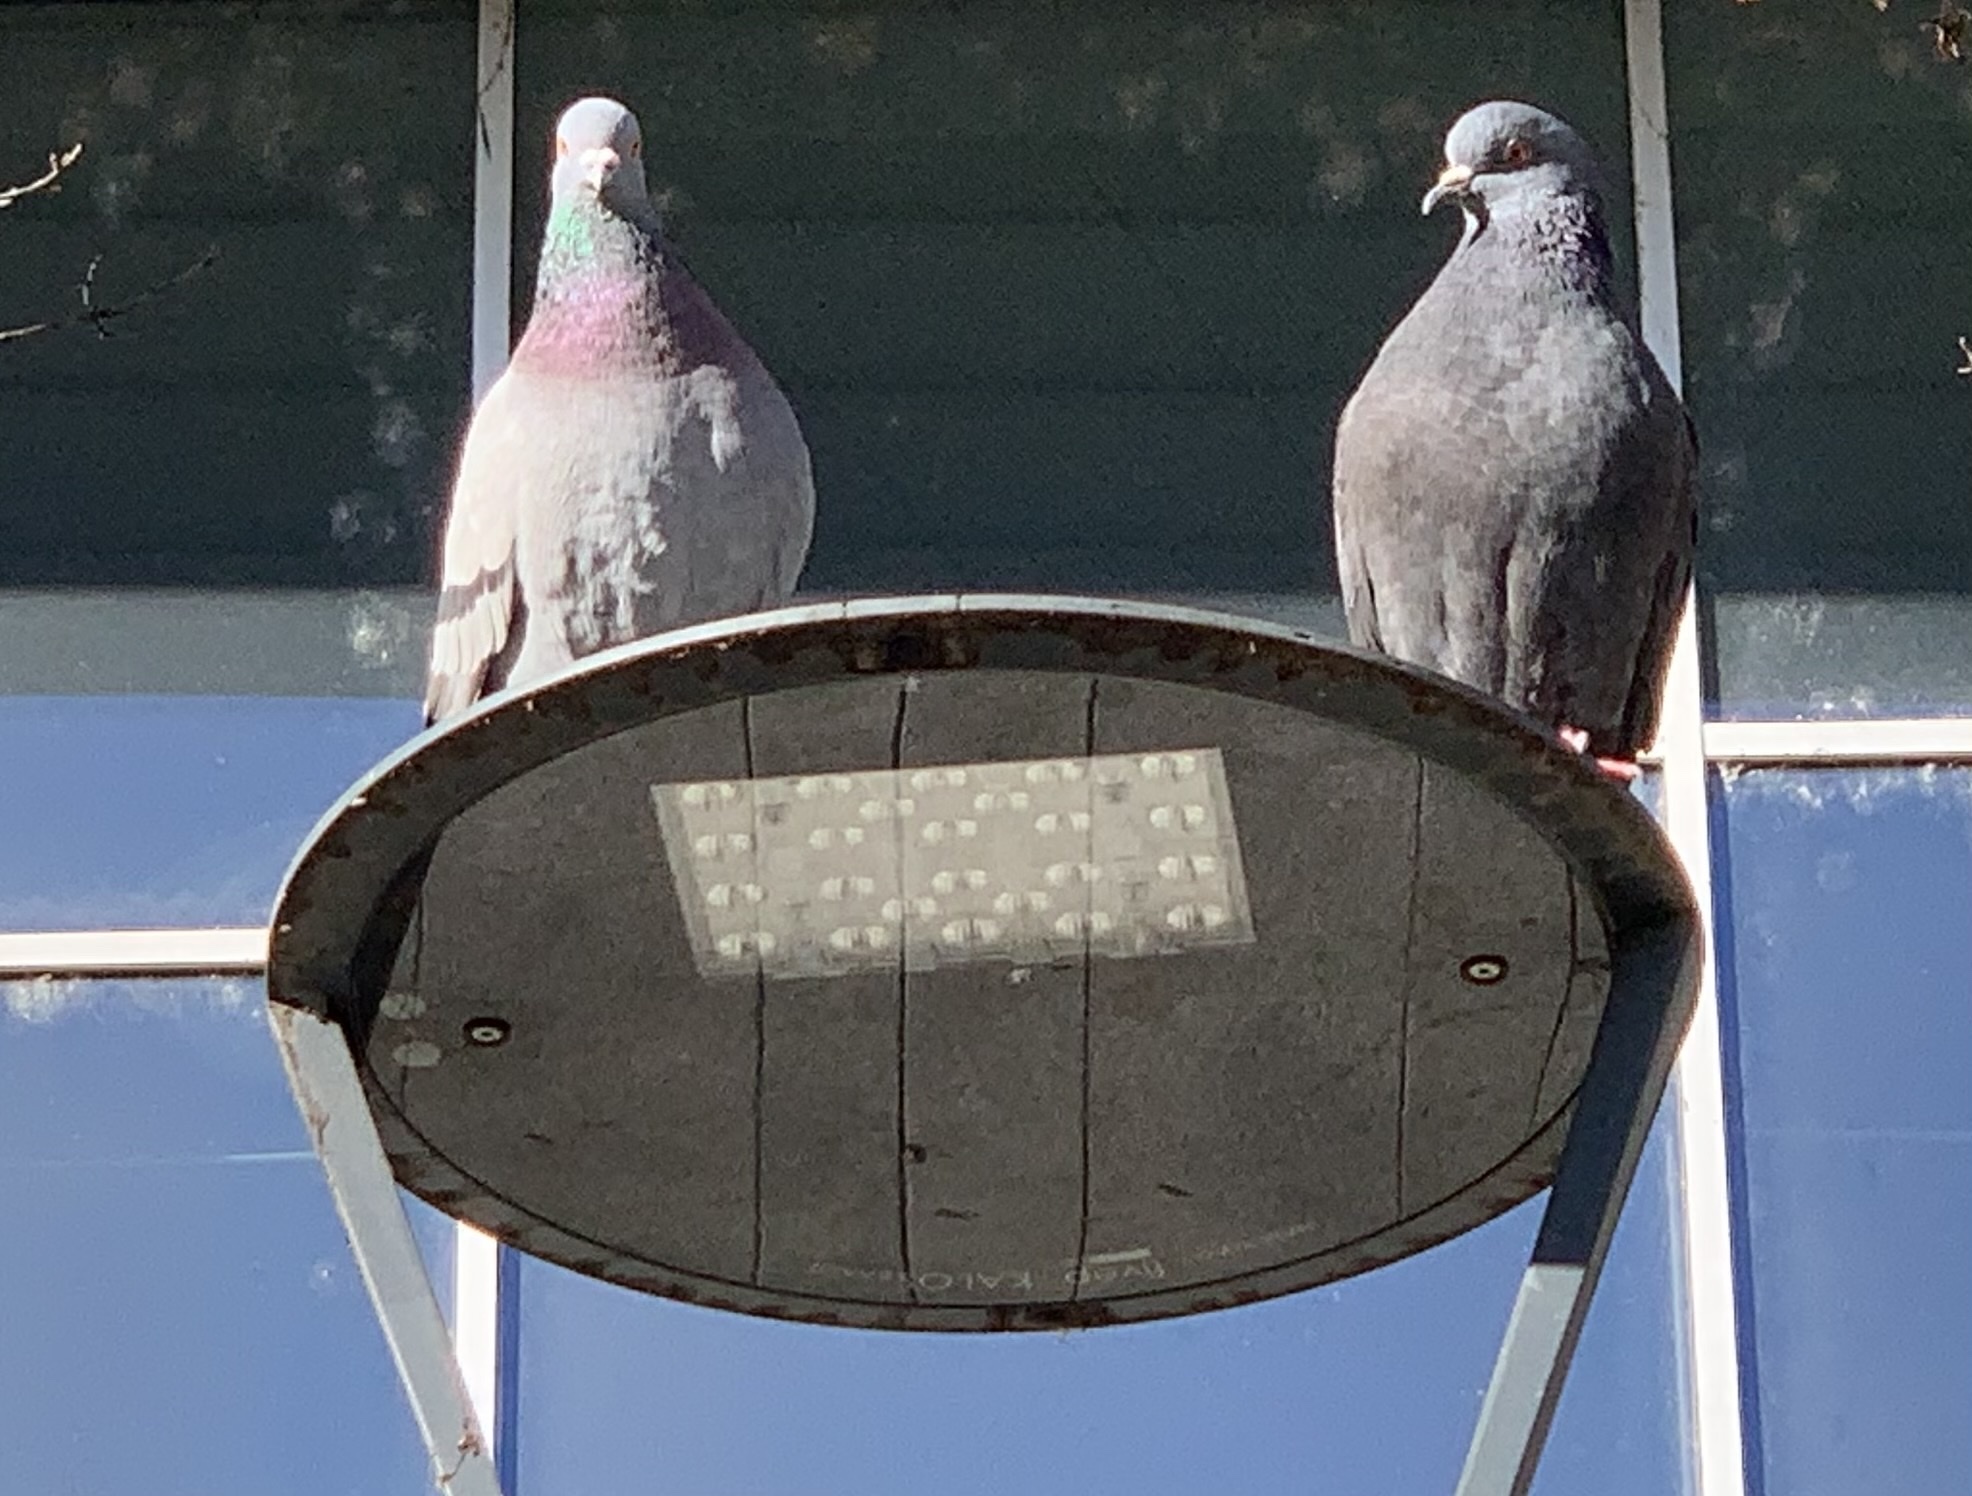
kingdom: Animalia
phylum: Chordata
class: Aves
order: Columbiformes
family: Columbidae
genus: Columba
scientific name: Columba livia
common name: Rock pigeon
